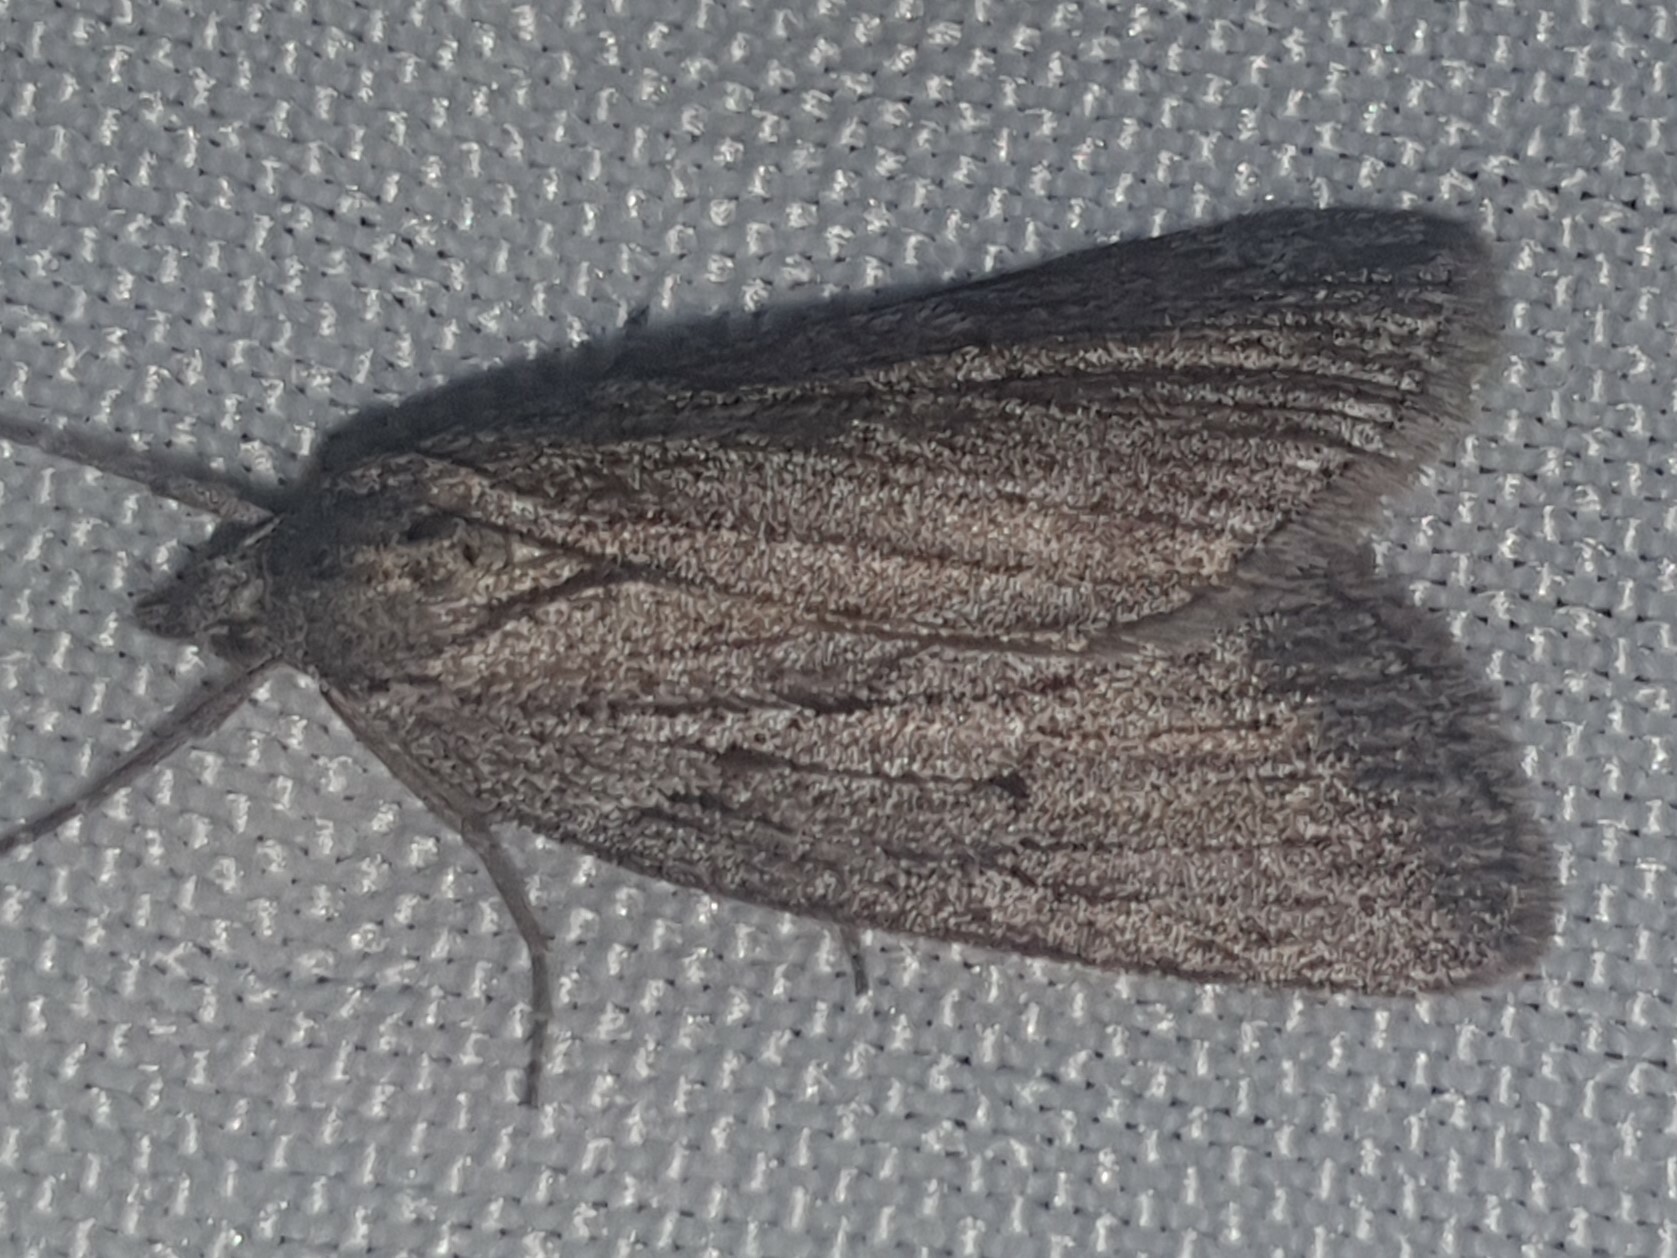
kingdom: Animalia
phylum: Arthropoda
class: Insecta
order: Lepidoptera
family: Geometridae
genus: Pachycnemia
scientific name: Pachycnemia hippocastanaria
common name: Horse chestnut
